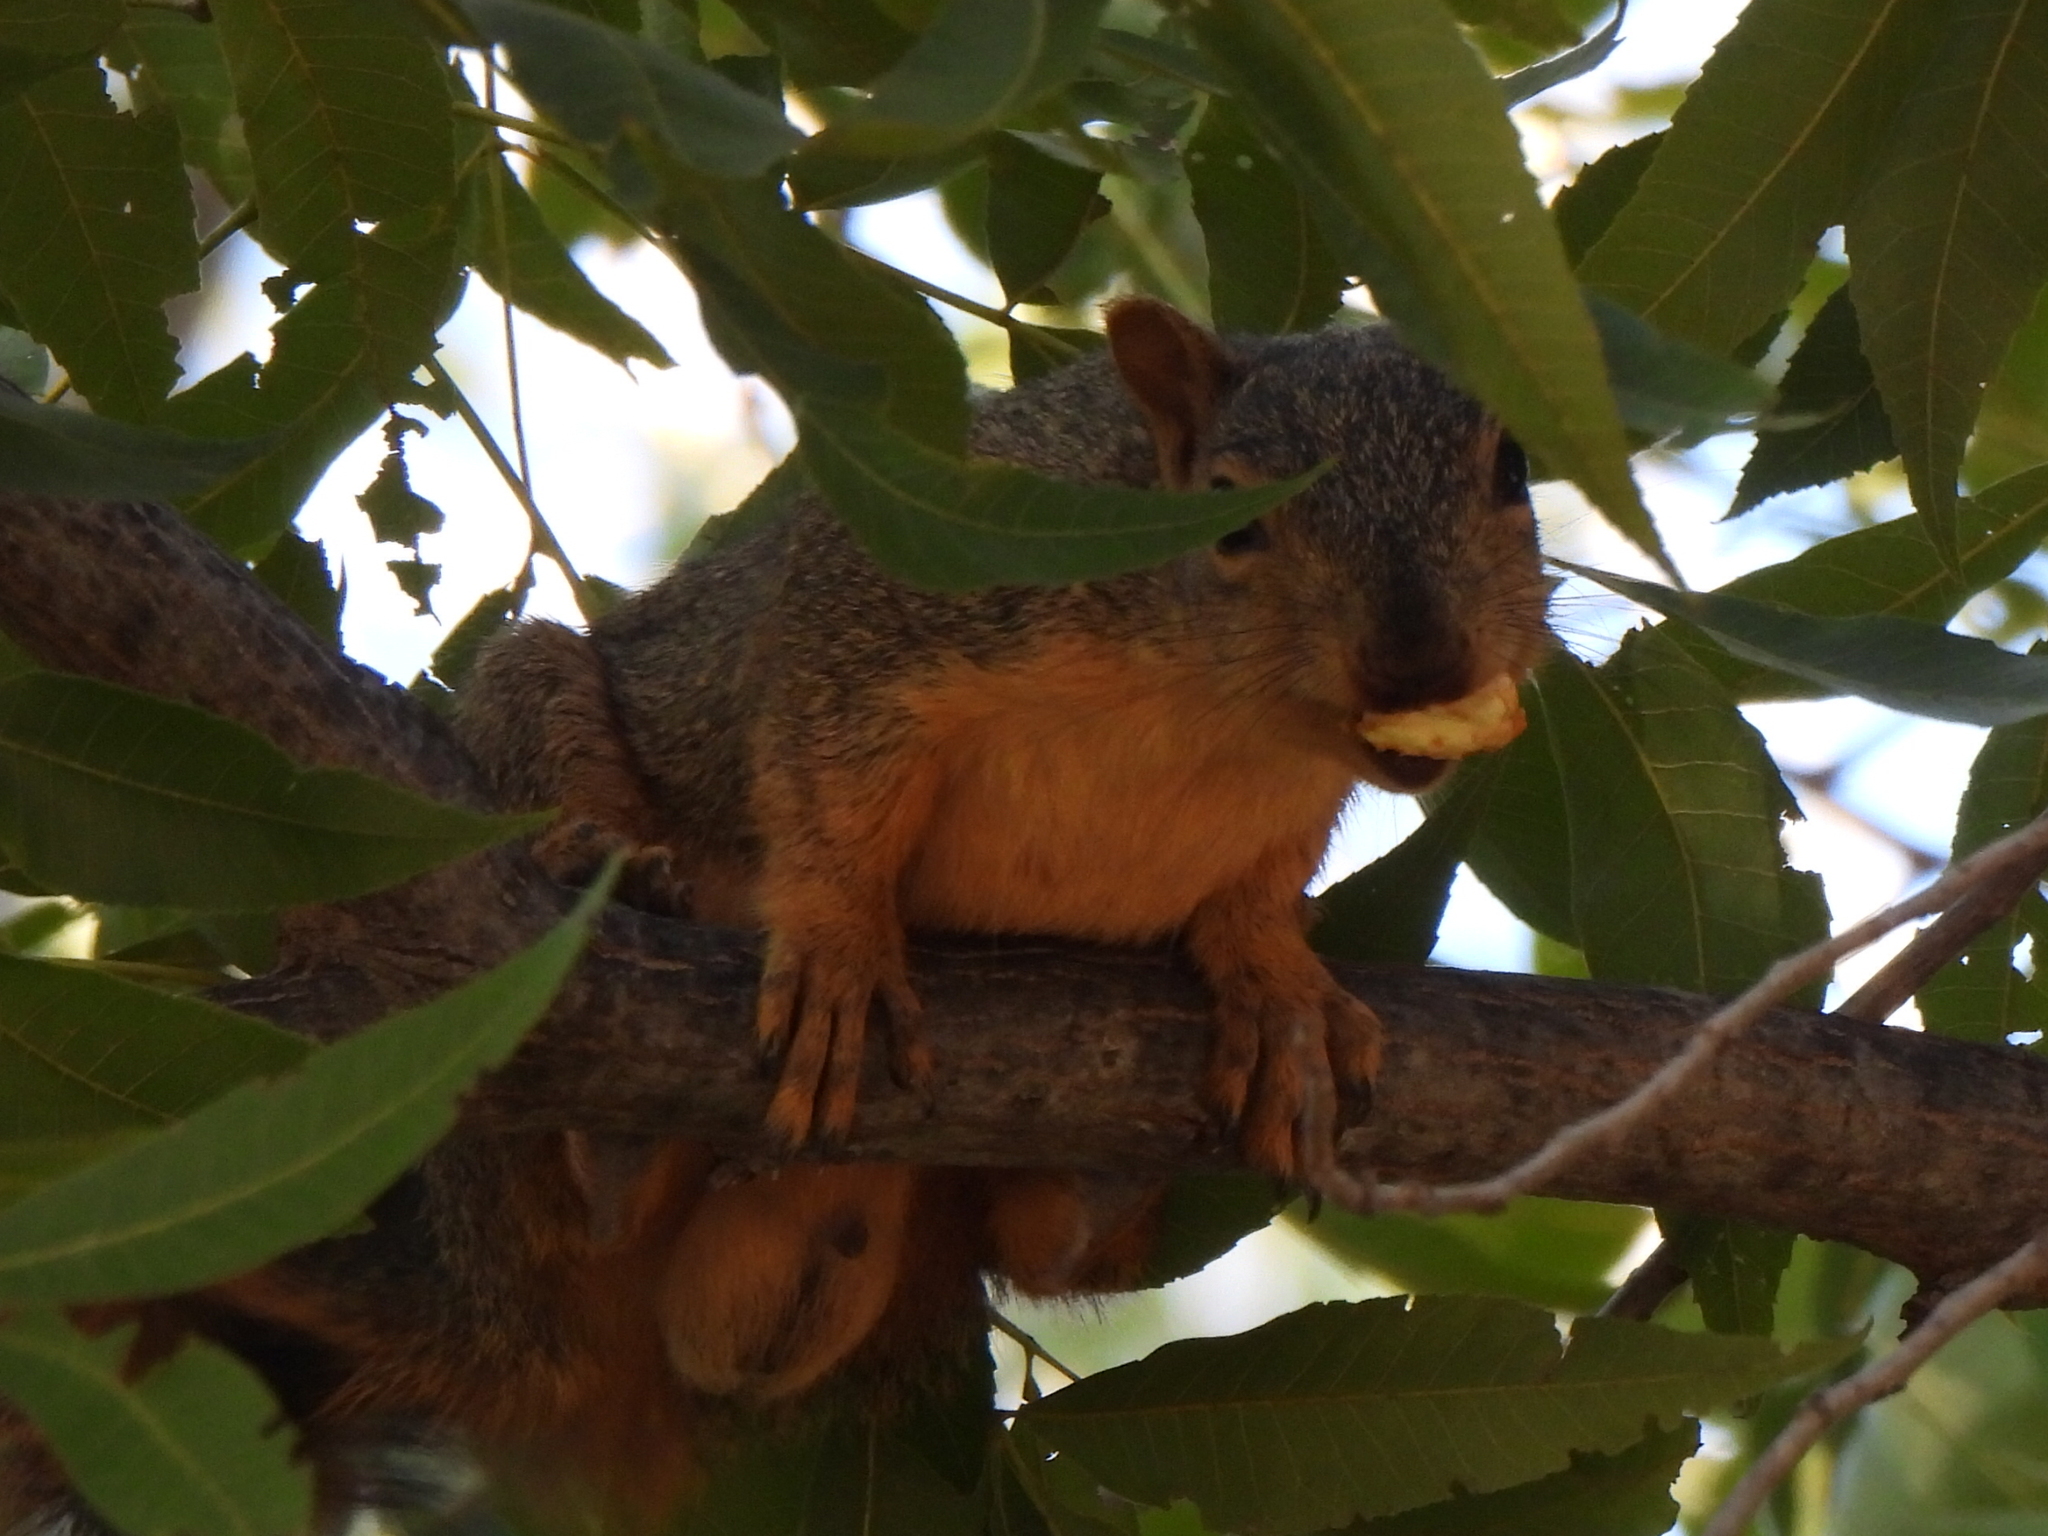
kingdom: Animalia
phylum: Chordata
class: Mammalia
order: Rodentia
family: Sciuridae
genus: Sciurus
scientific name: Sciurus niger
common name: Fox squirrel
